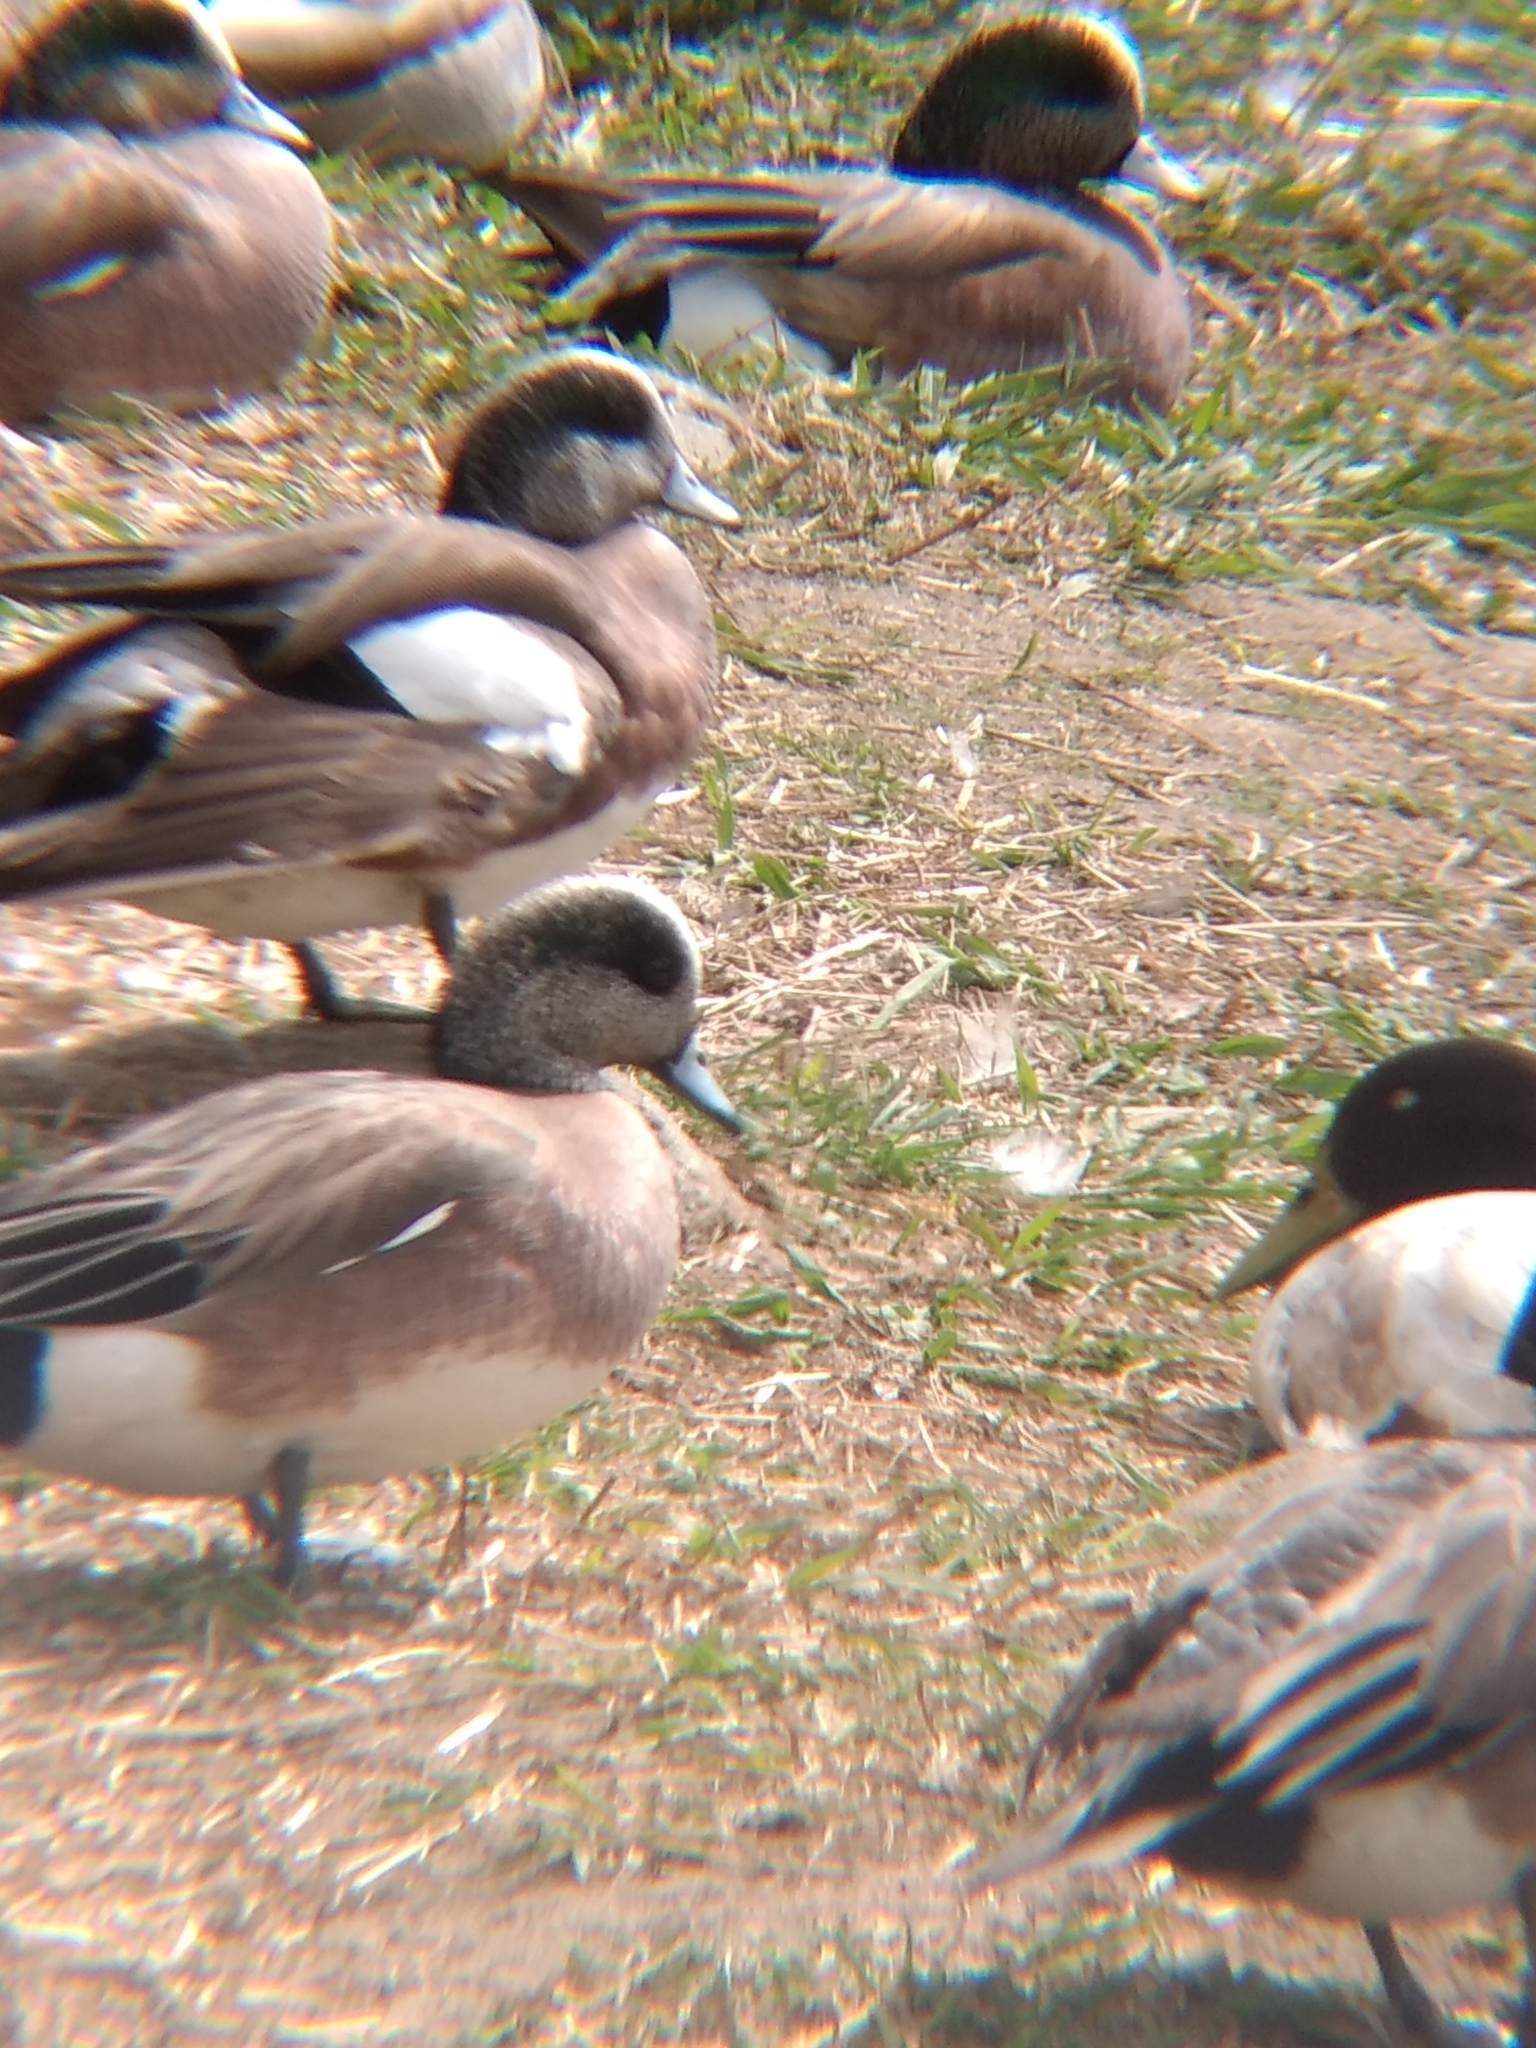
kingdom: Animalia
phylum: Chordata
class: Aves
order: Anseriformes
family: Anatidae
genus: Mareca
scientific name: Mareca americana
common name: American wigeon
